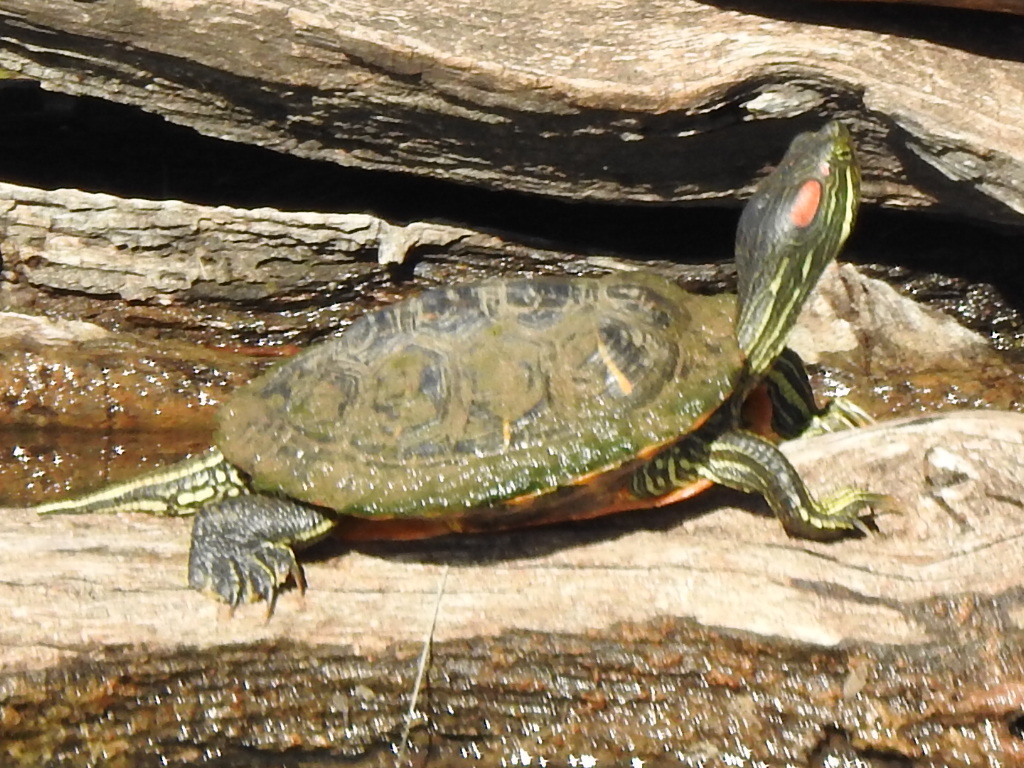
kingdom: Animalia
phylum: Chordata
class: Testudines
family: Emydidae
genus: Trachemys
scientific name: Trachemys scripta
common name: Slider
